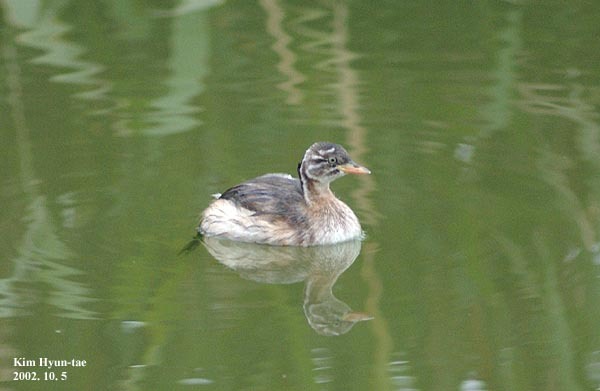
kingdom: Animalia
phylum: Chordata
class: Aves
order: Podicipediformes
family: Podicipedidae
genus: Tachybaptus
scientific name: Tachybaptus ruficollis
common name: Little grebe
